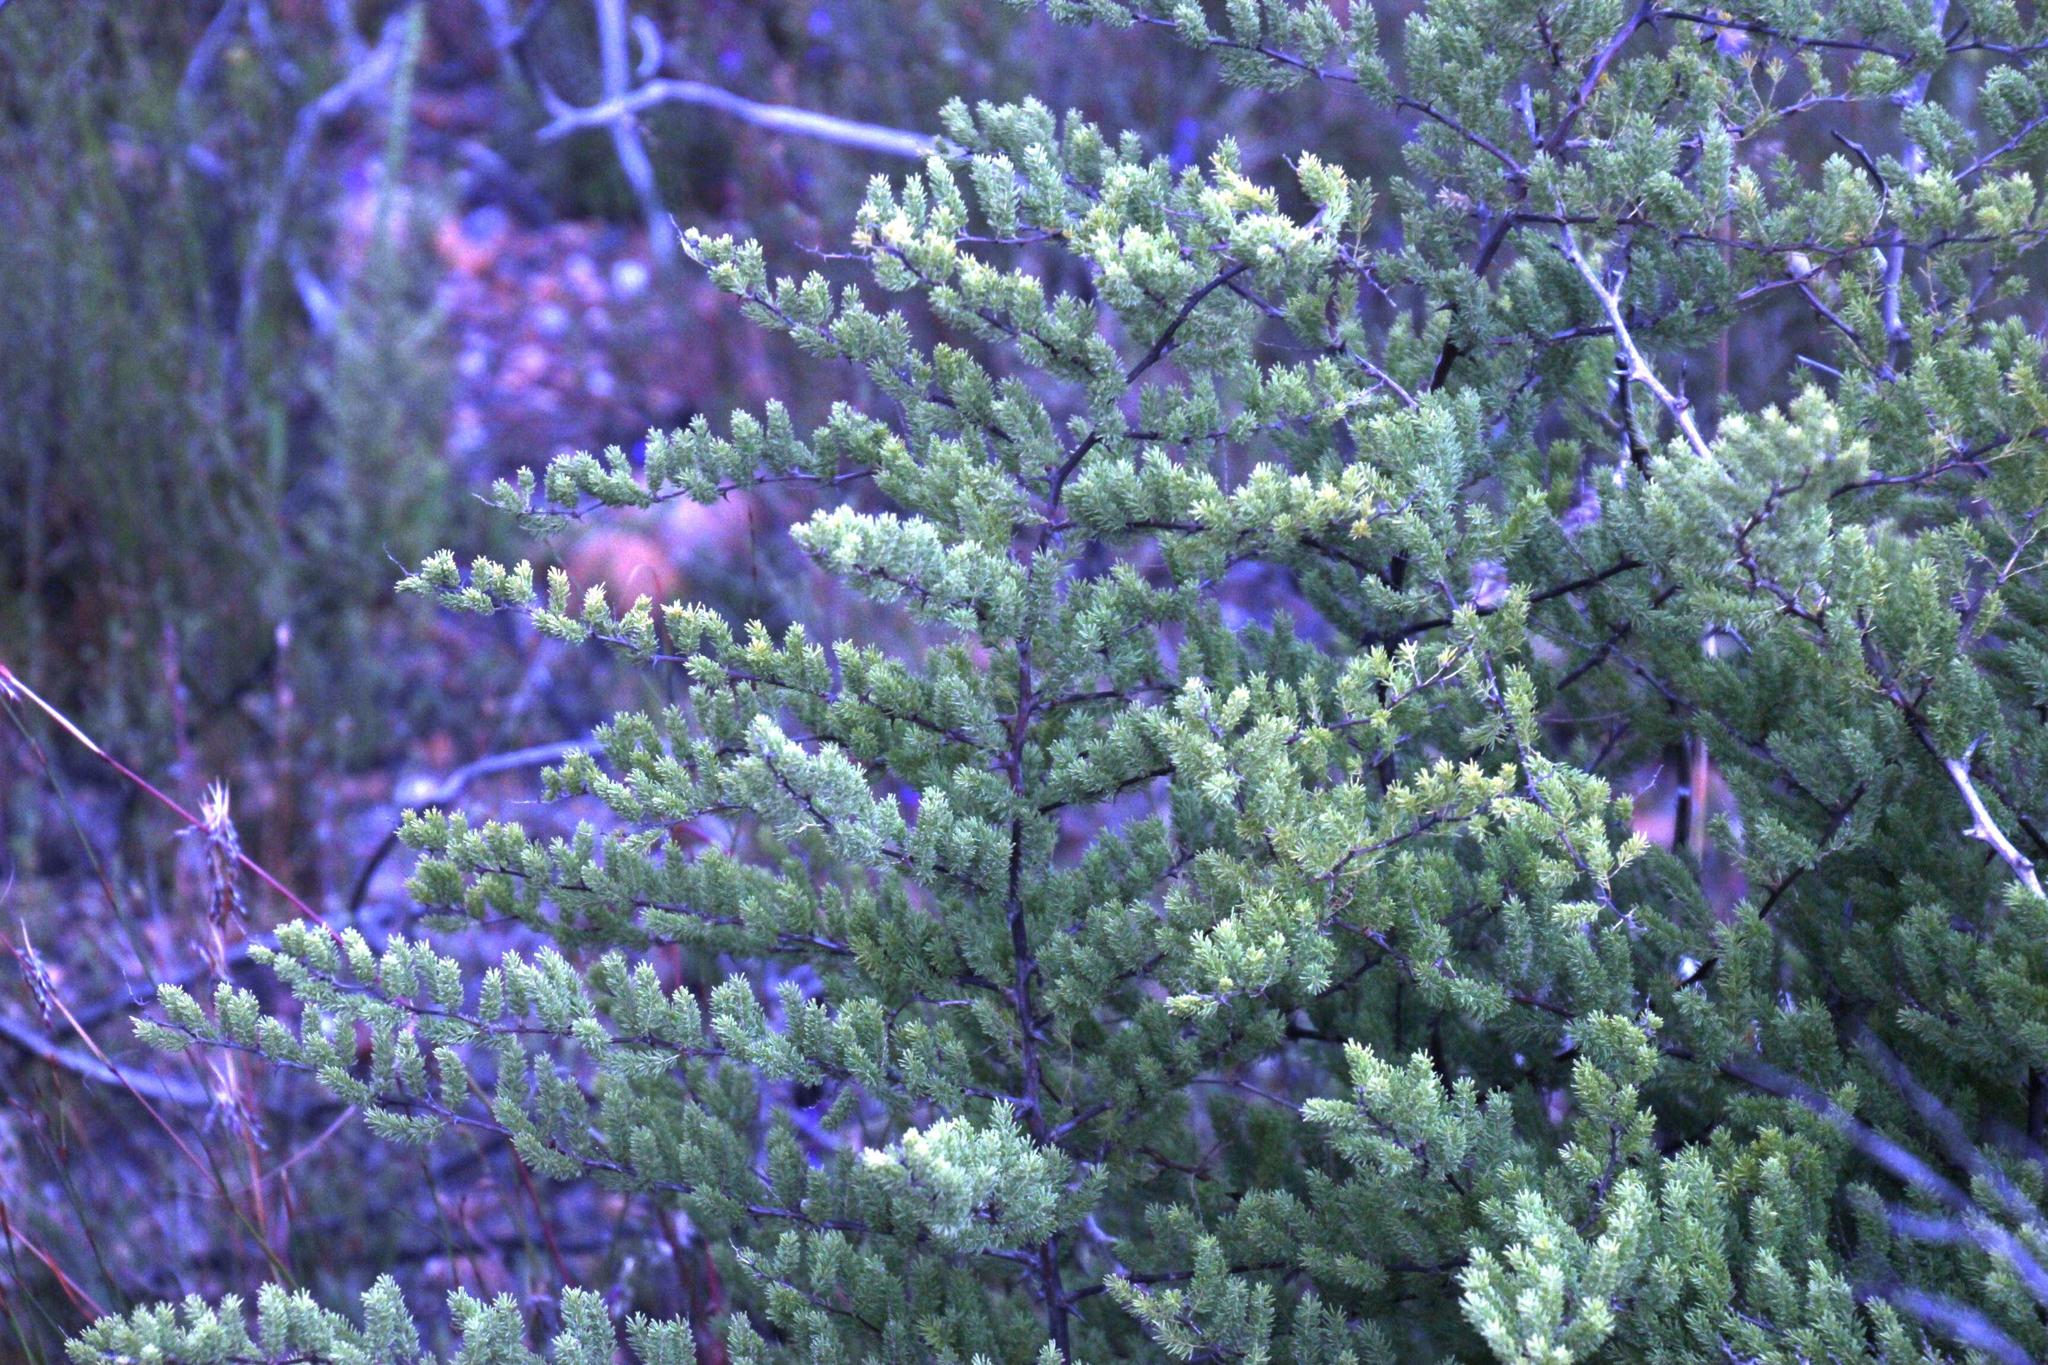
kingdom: Plantae
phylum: Tracheophyta
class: Liliopsida
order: Asparagales
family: Asparagaceae
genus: Asparagus
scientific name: Asparagus rubicundus
